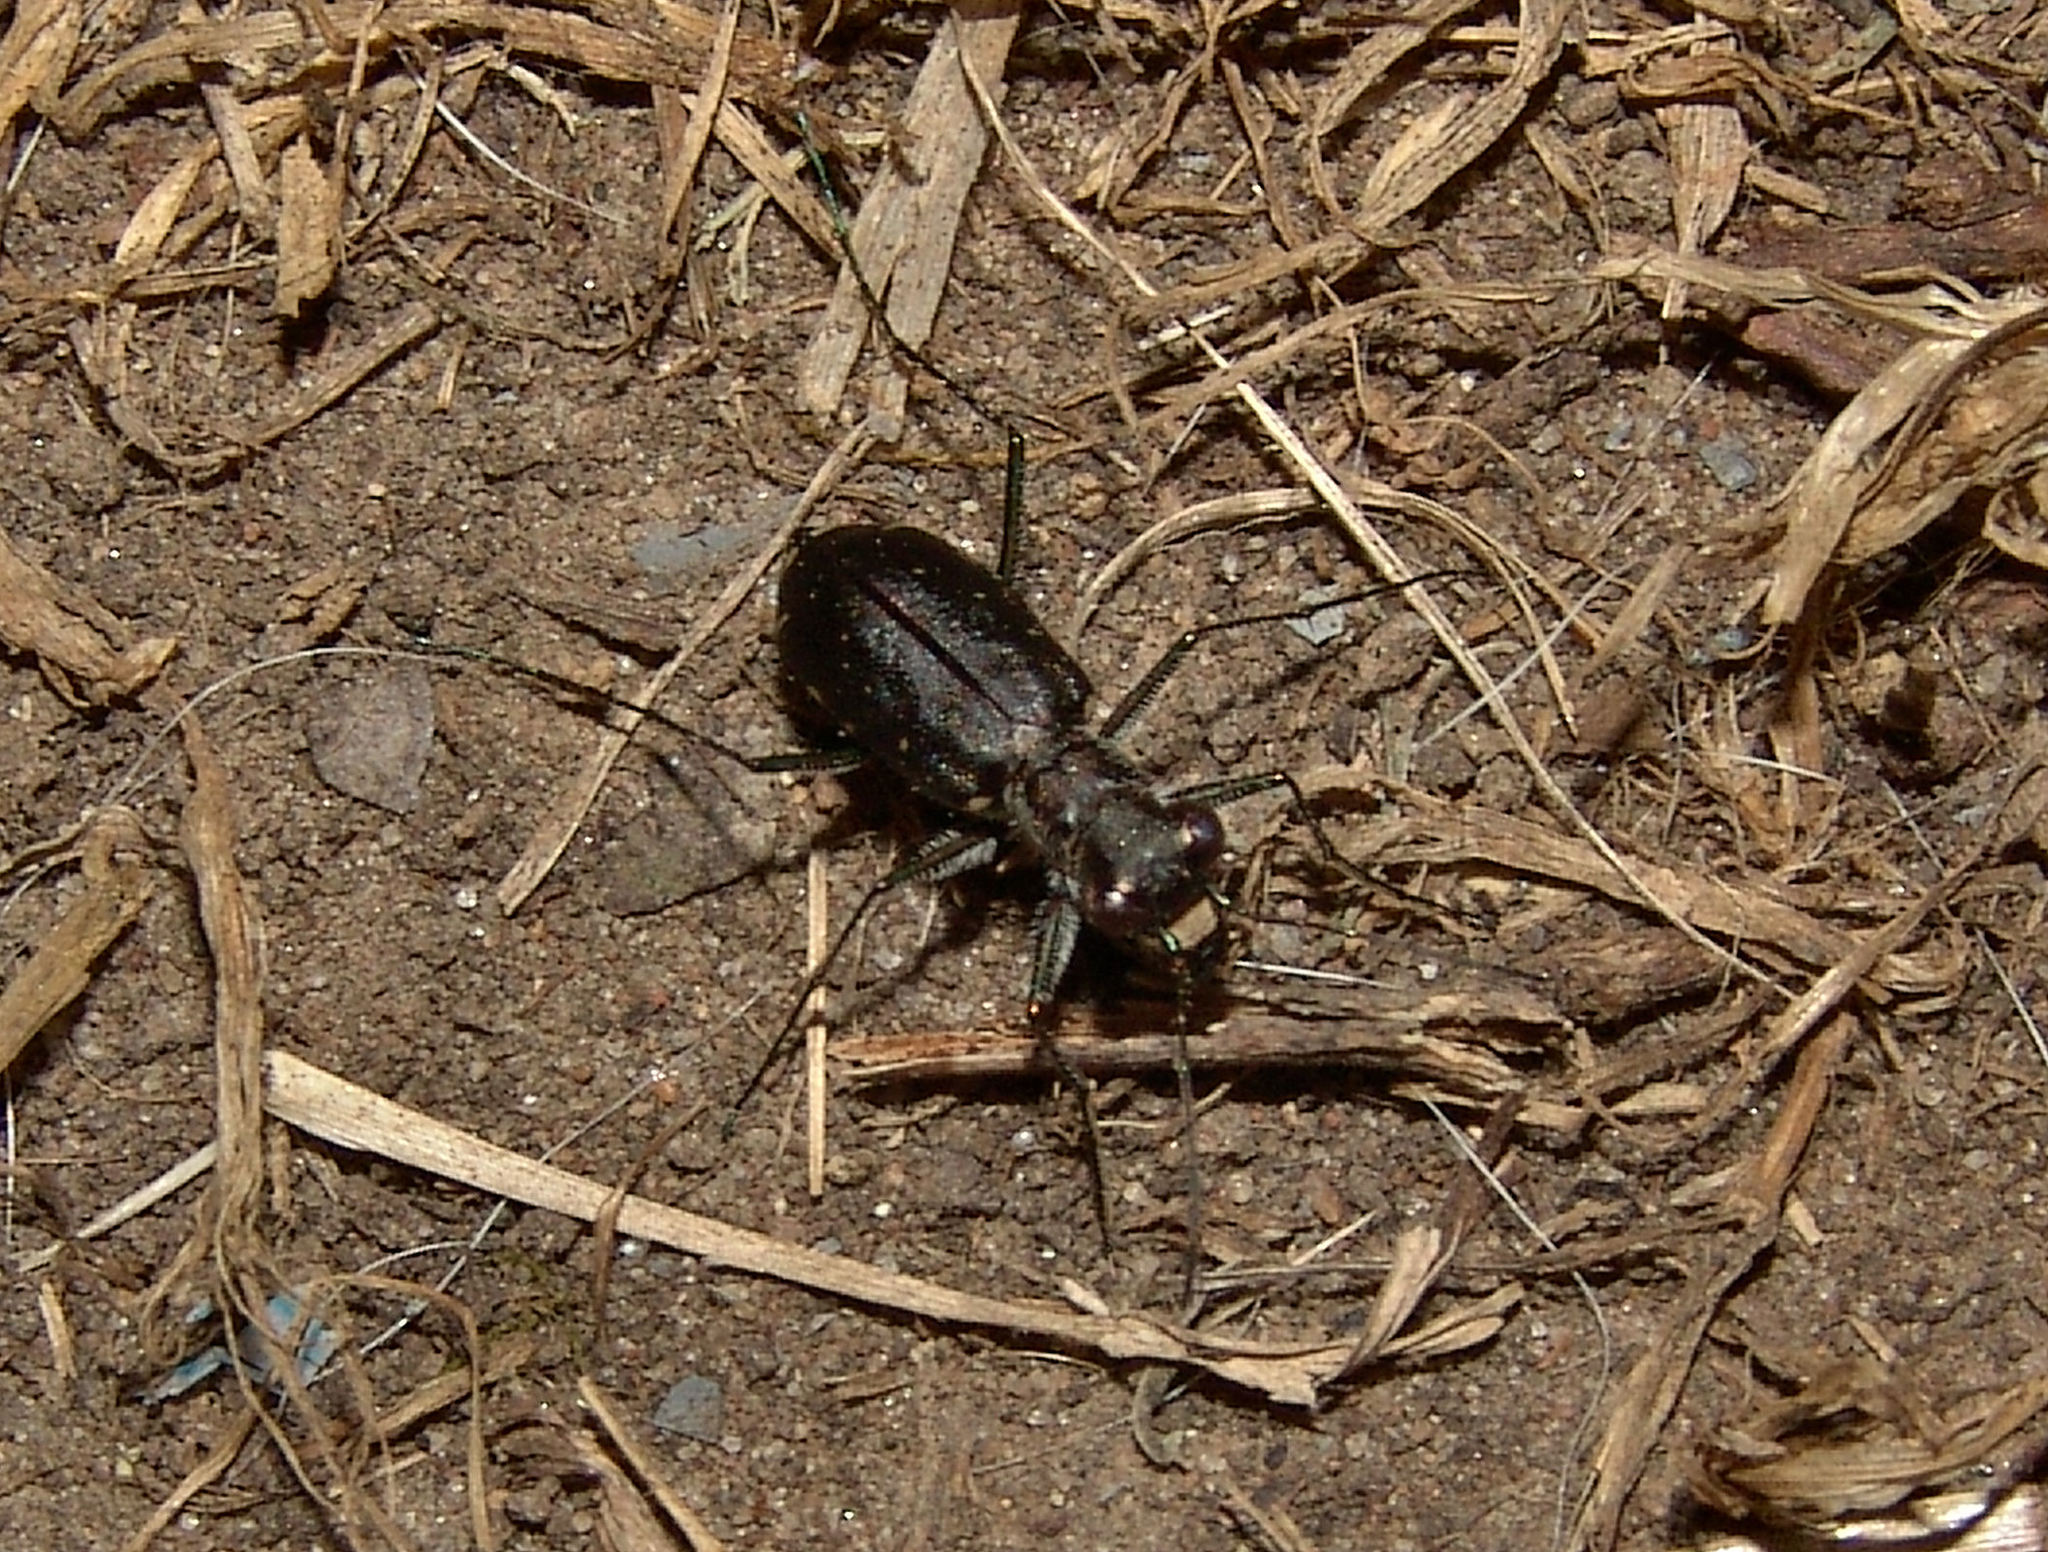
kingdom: Animalia
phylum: Arthropoda
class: Insecta
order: Coleoptera
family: Carabidae
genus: Cicindela
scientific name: Cicindela punctulata
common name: Punctured tiger beetle
